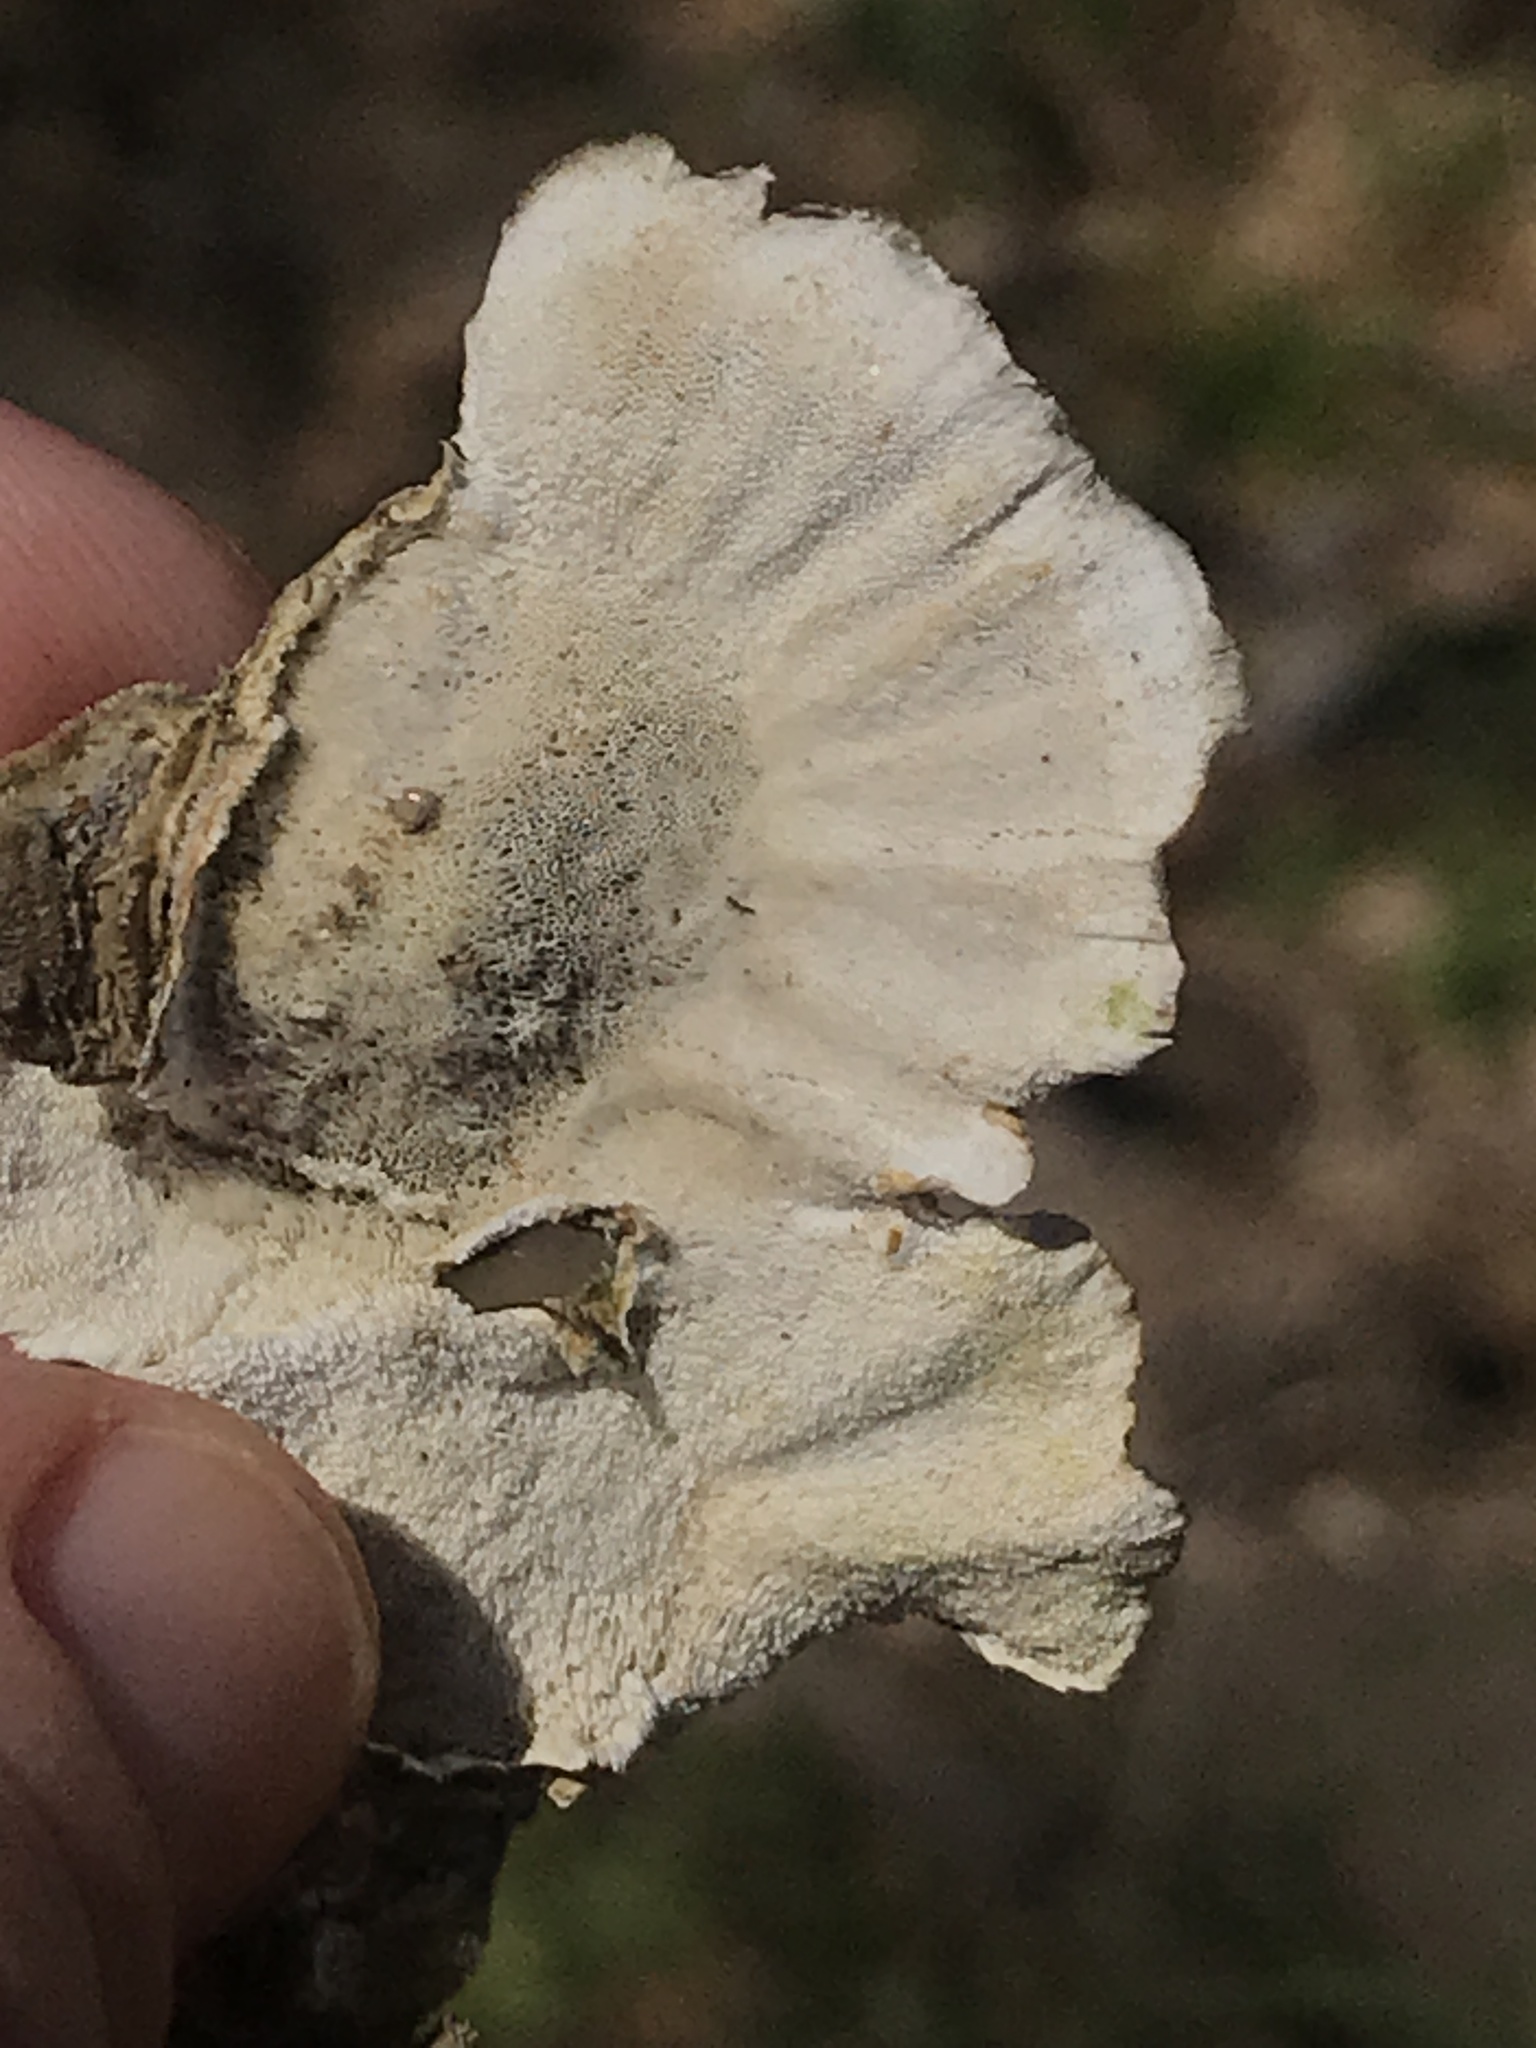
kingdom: Fungi
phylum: Basidiomycota
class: Agaricomycetes
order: Polyporales
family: Polyporaceae
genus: Trametes
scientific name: Trametes versicolor
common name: Turkeytail
